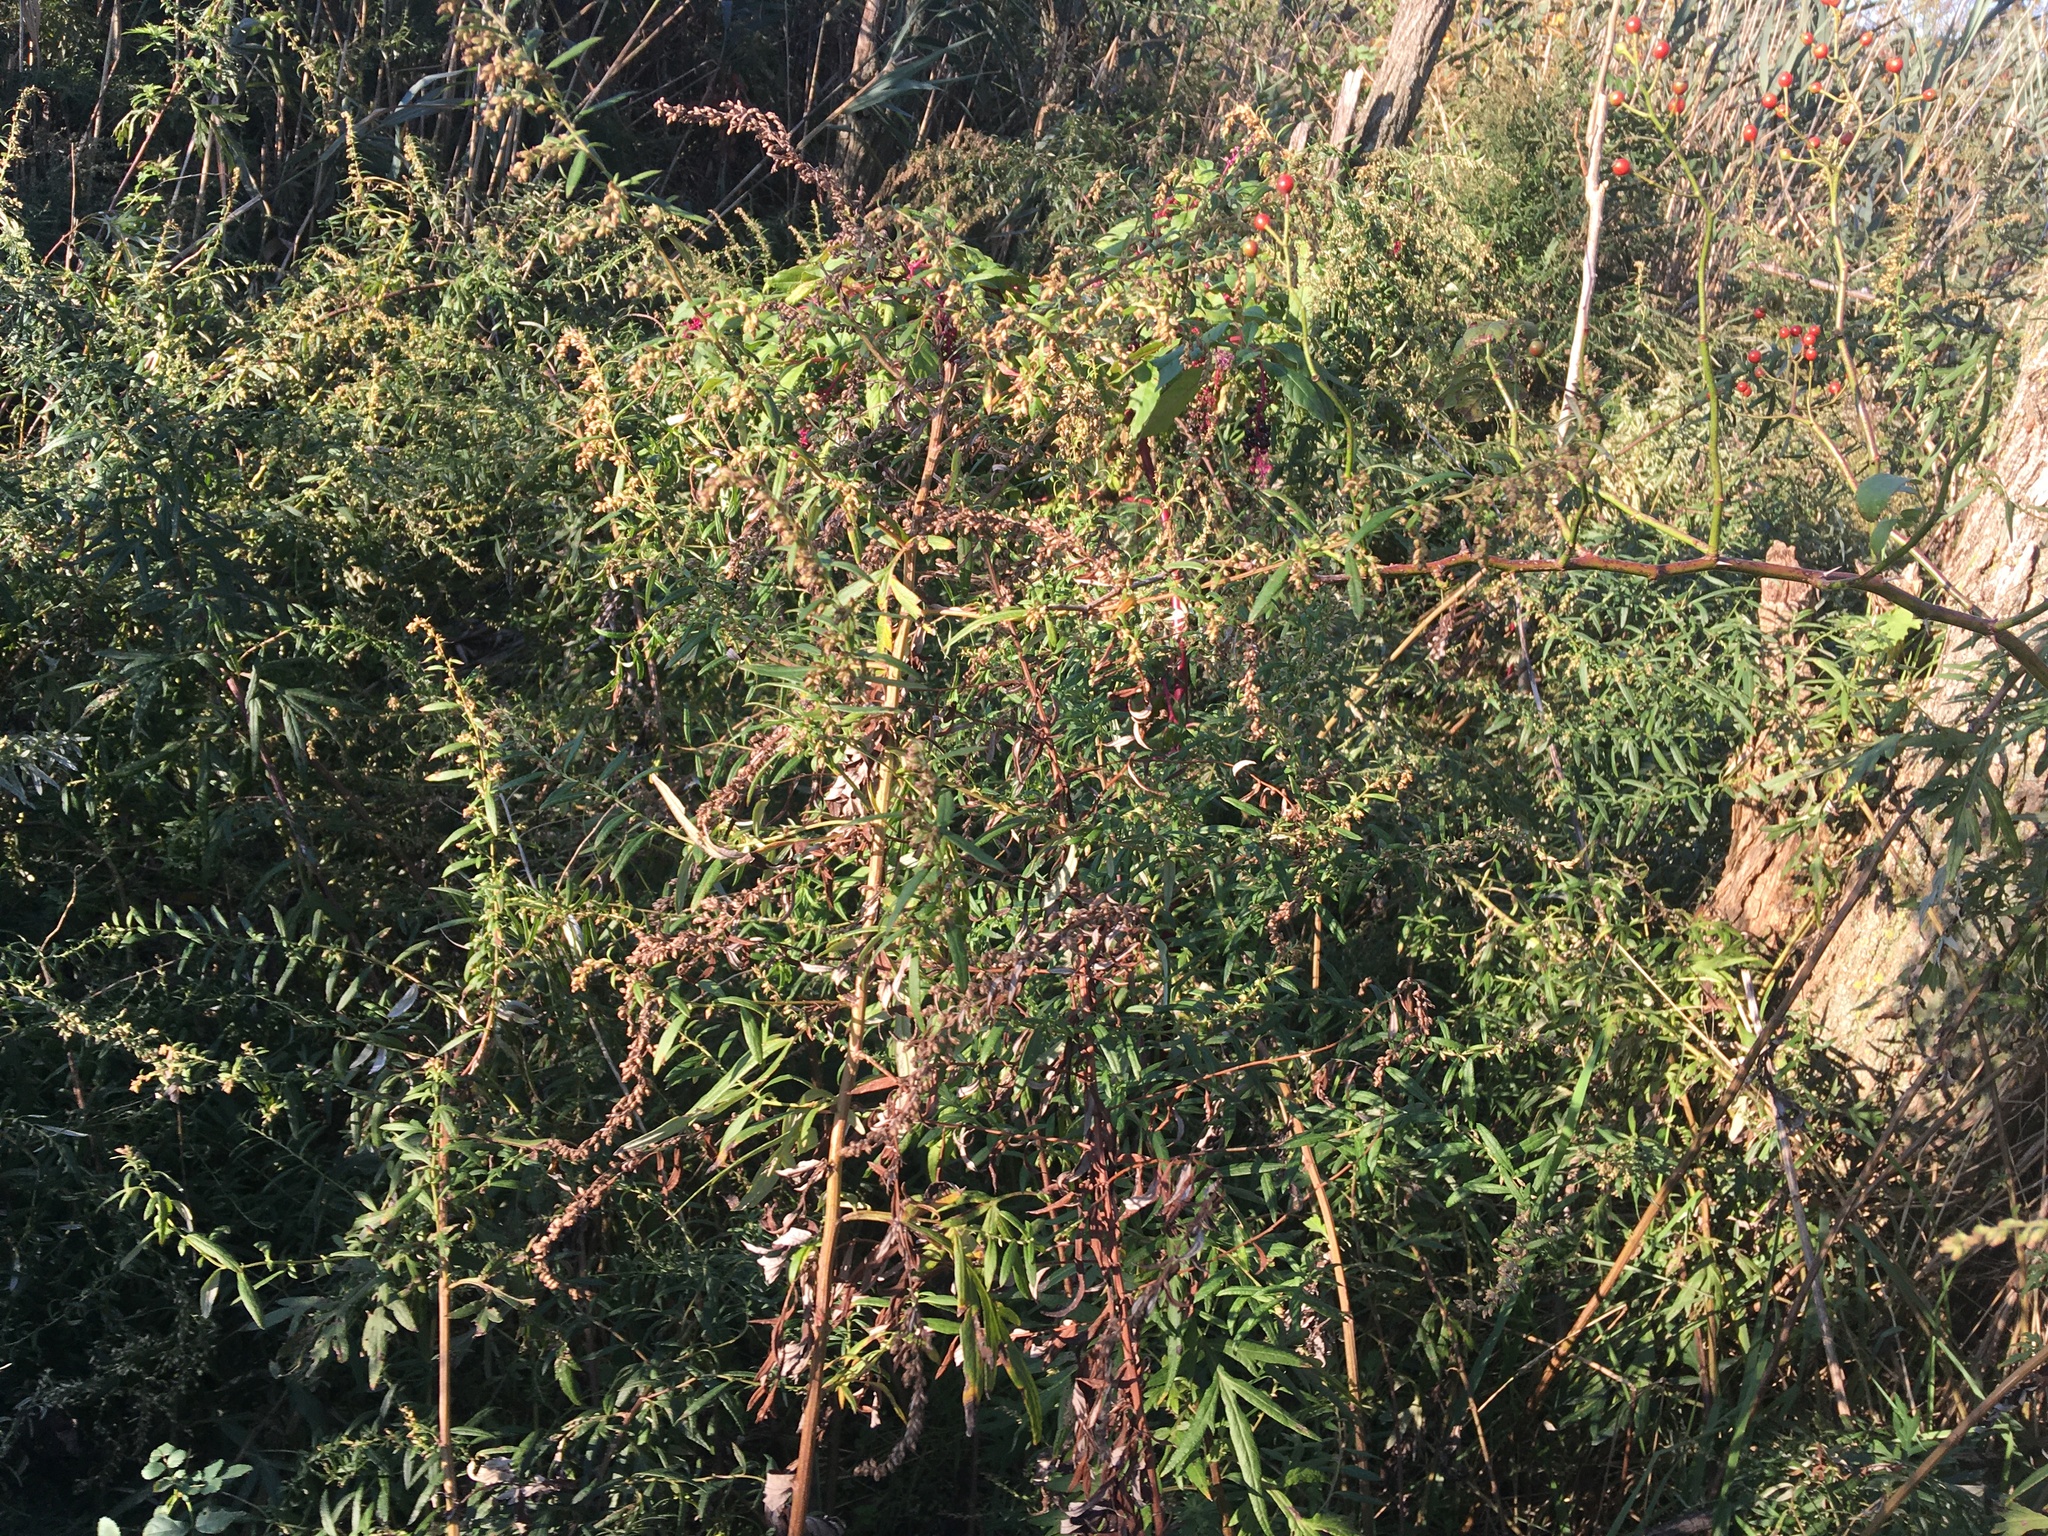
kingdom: Plantae
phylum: Tracheophyta
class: Magnoliopsida
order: Asterales
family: Asteraceae
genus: Artemisia
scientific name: Artemisia vulgaris
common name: Mugwort
